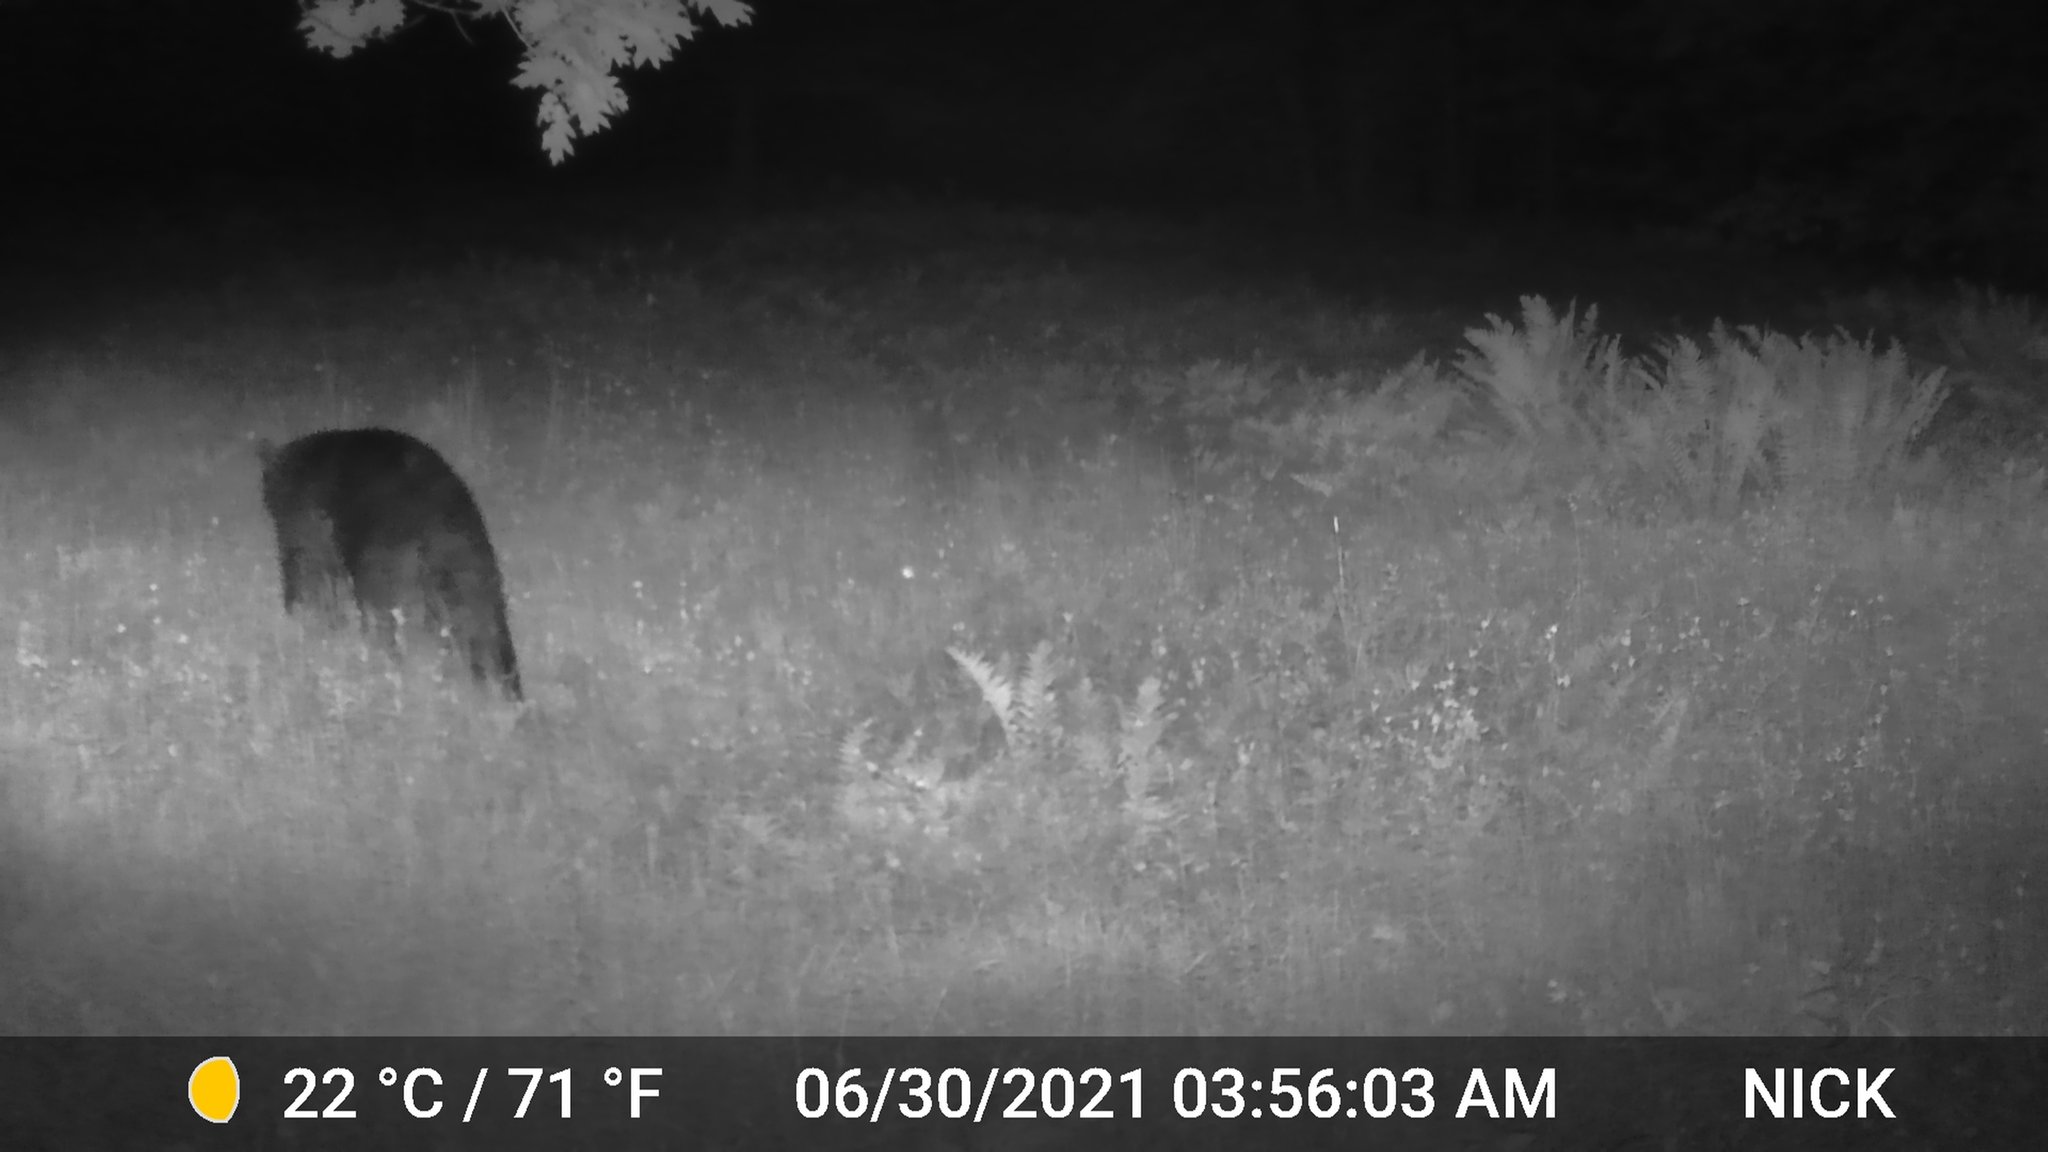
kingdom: Animalia
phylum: Chordata
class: Mammalia
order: Carnivora
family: Ursidae
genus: Ursus
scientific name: Ursus americanus
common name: American black bear
